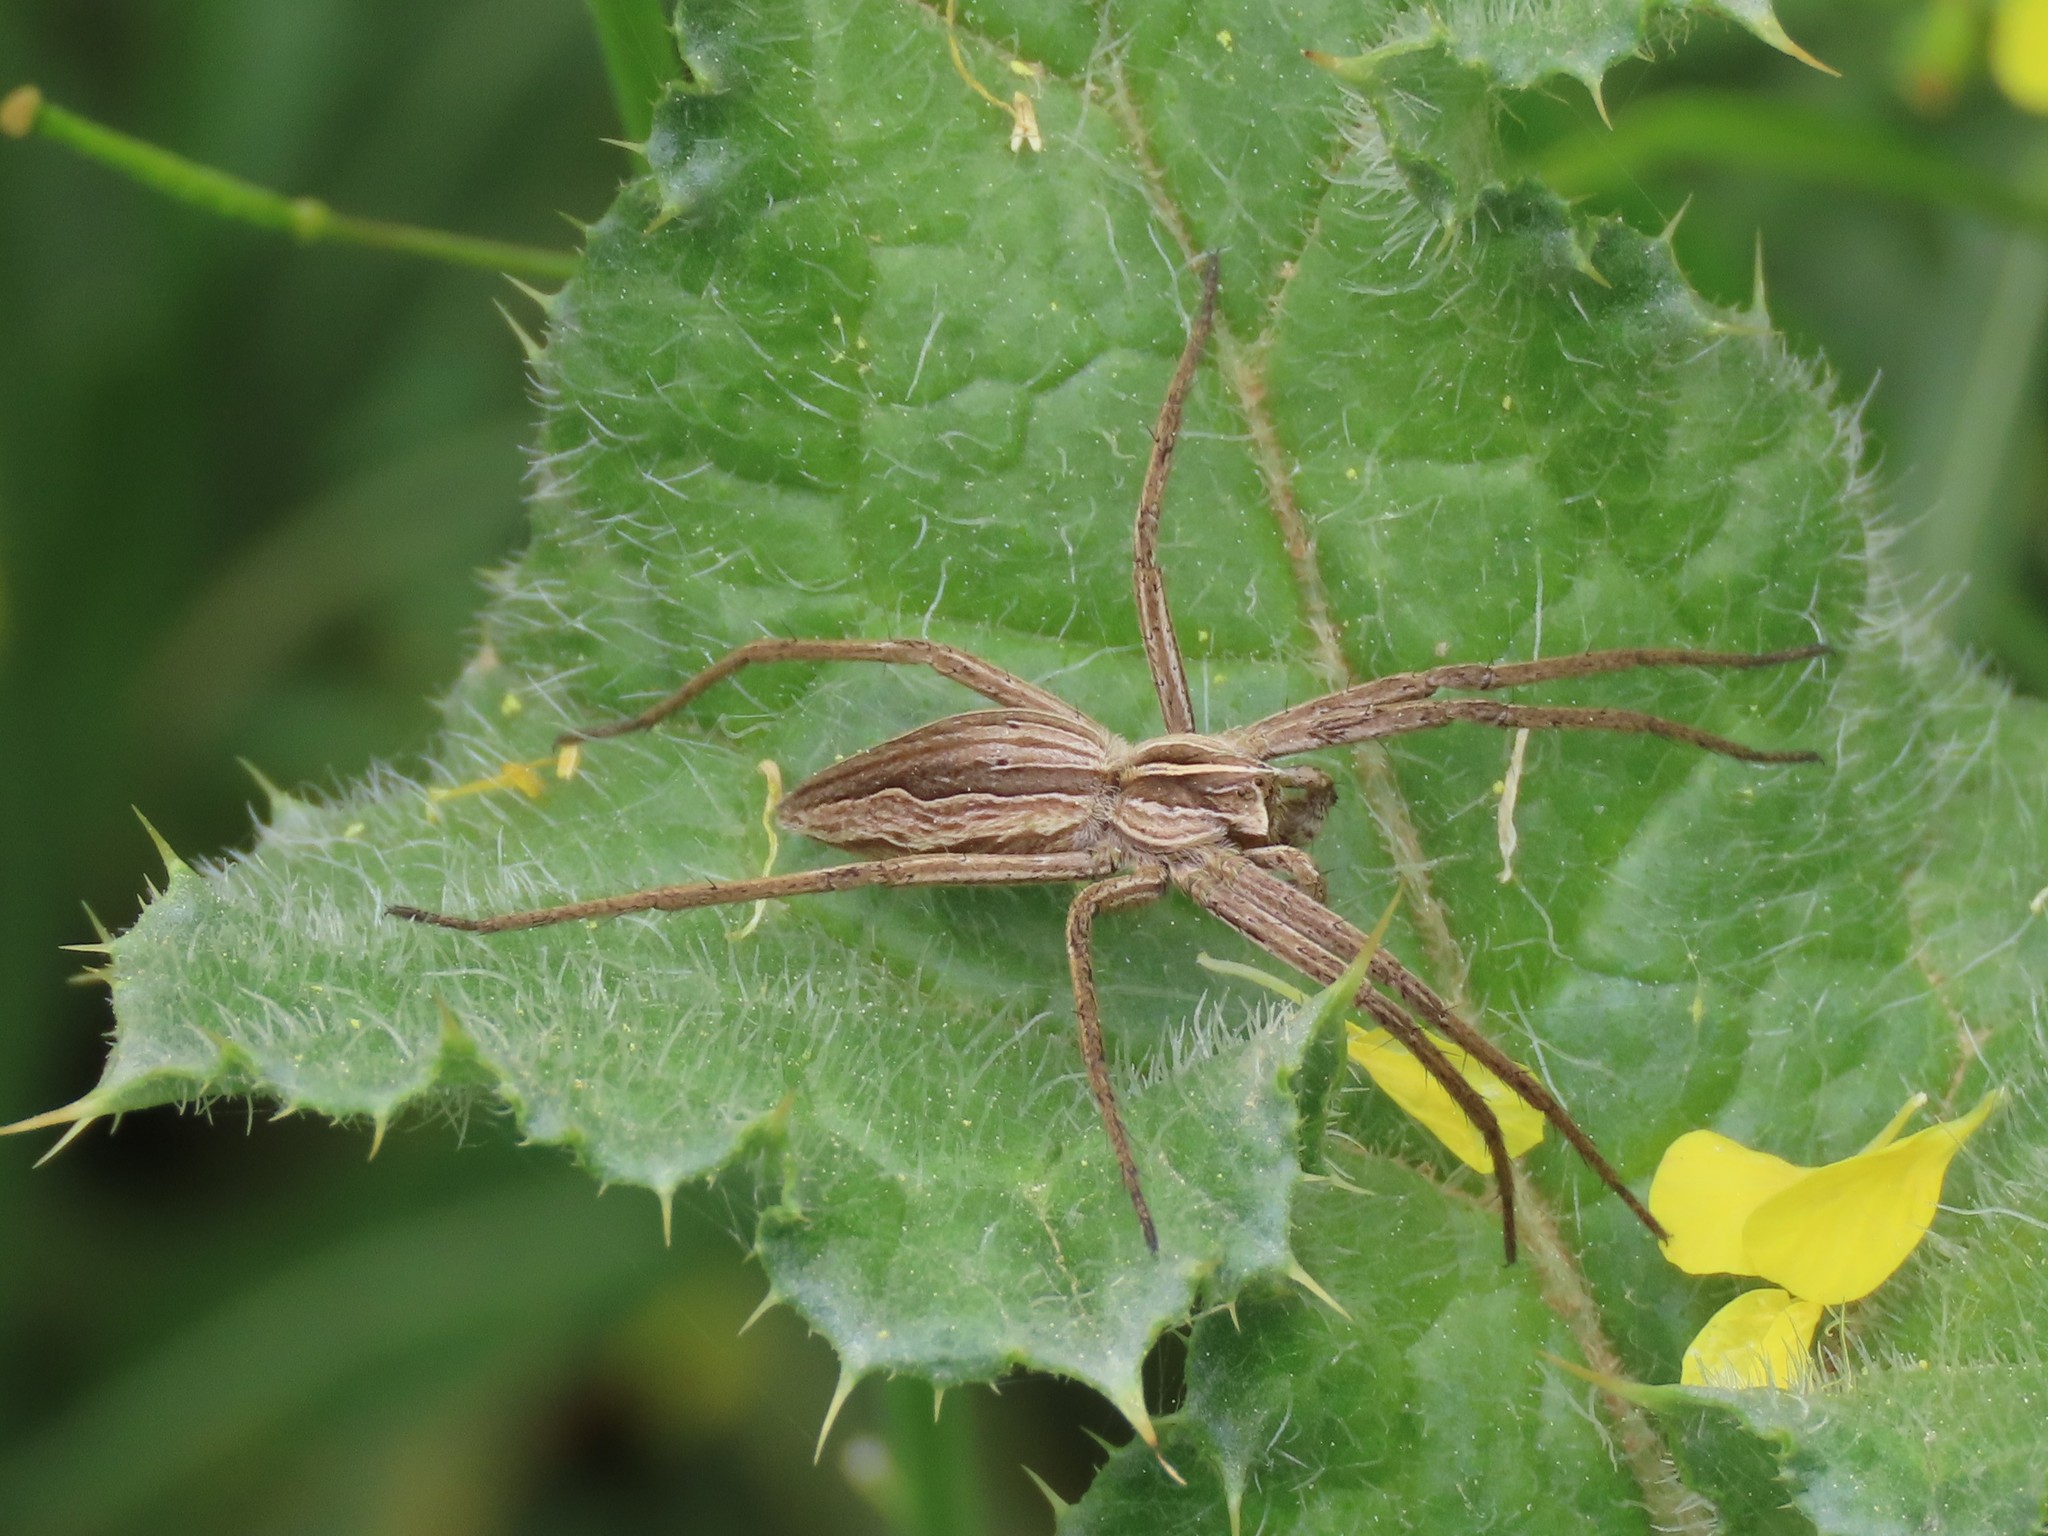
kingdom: Animalia
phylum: Arthropoda
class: Arachnida
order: Araneae
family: Pisauridae
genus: Pisaura
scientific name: Pisaura mirabilis
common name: Tent spider
